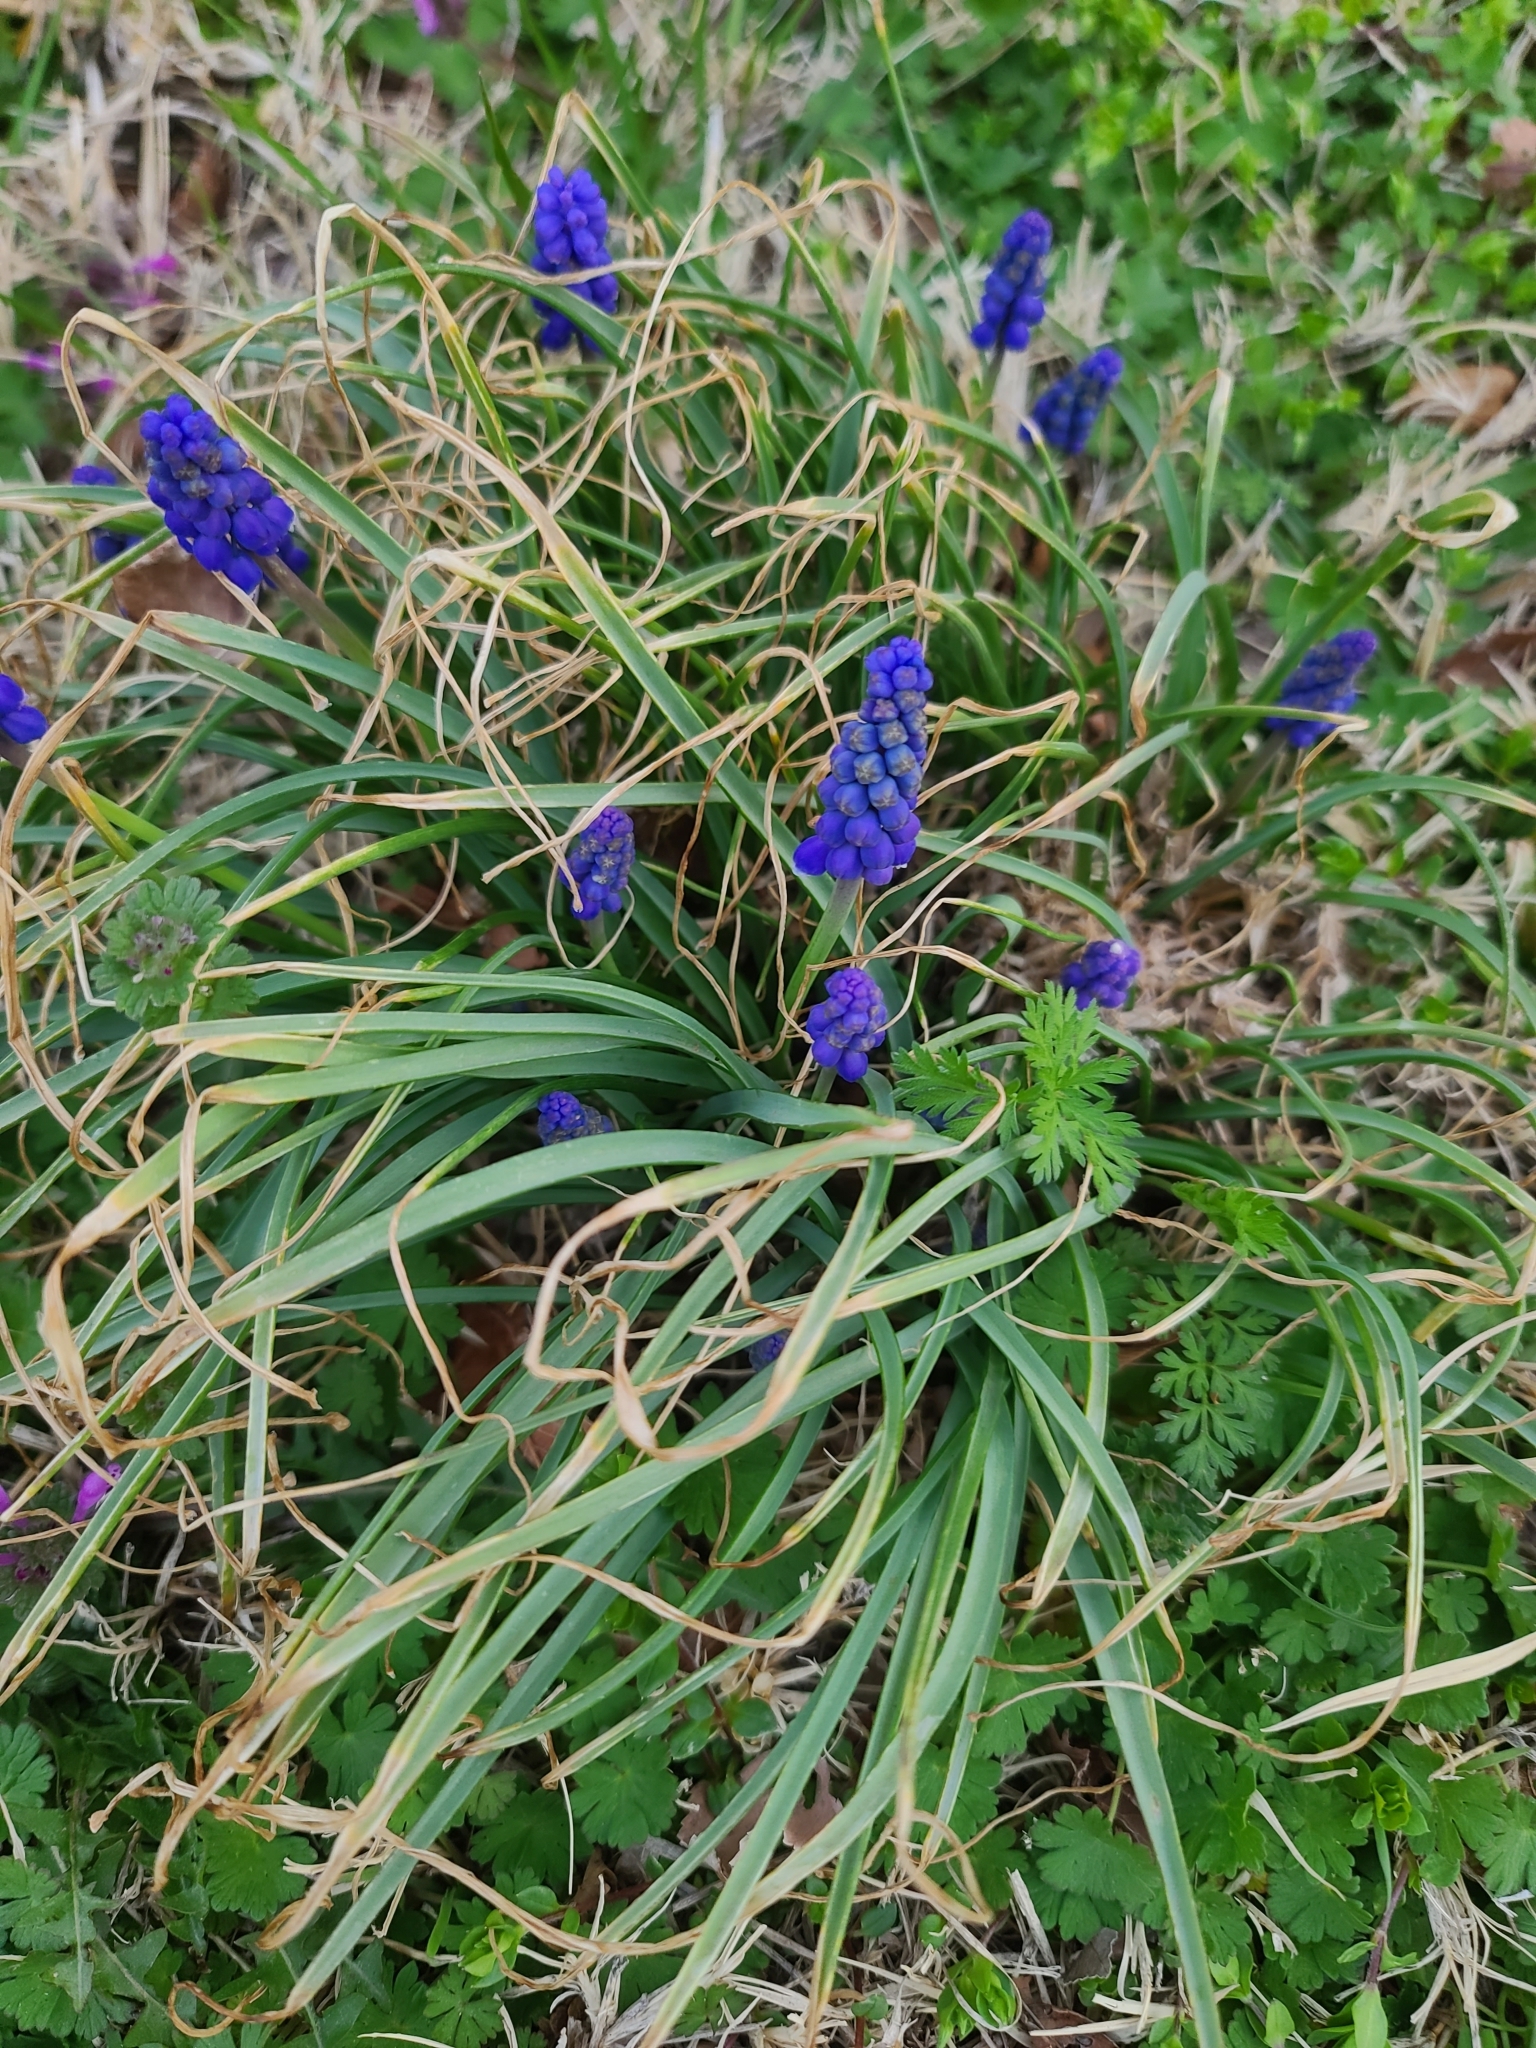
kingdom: Plantae
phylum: Tracheophyta
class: Liliopsida
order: Asparagales
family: Asparagaceae
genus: Muscari
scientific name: Muscari botryoides
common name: Compact grape-hyacinth
